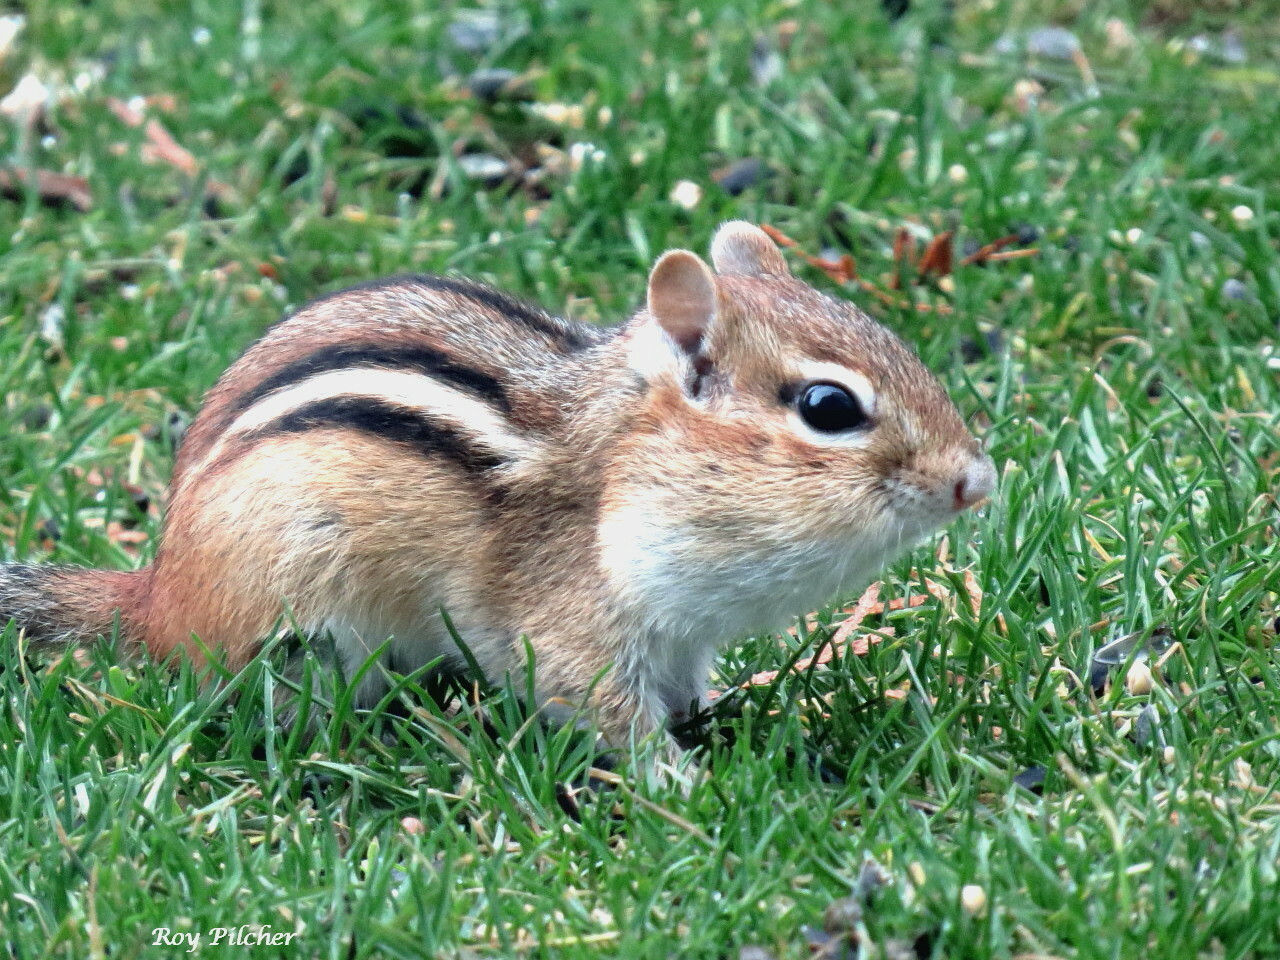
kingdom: Animalia
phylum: Chordata
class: Mammalia
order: Rodentia
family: Sciuridae
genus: Tamias
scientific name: Tamias striatus
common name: Eastern chipmunk
